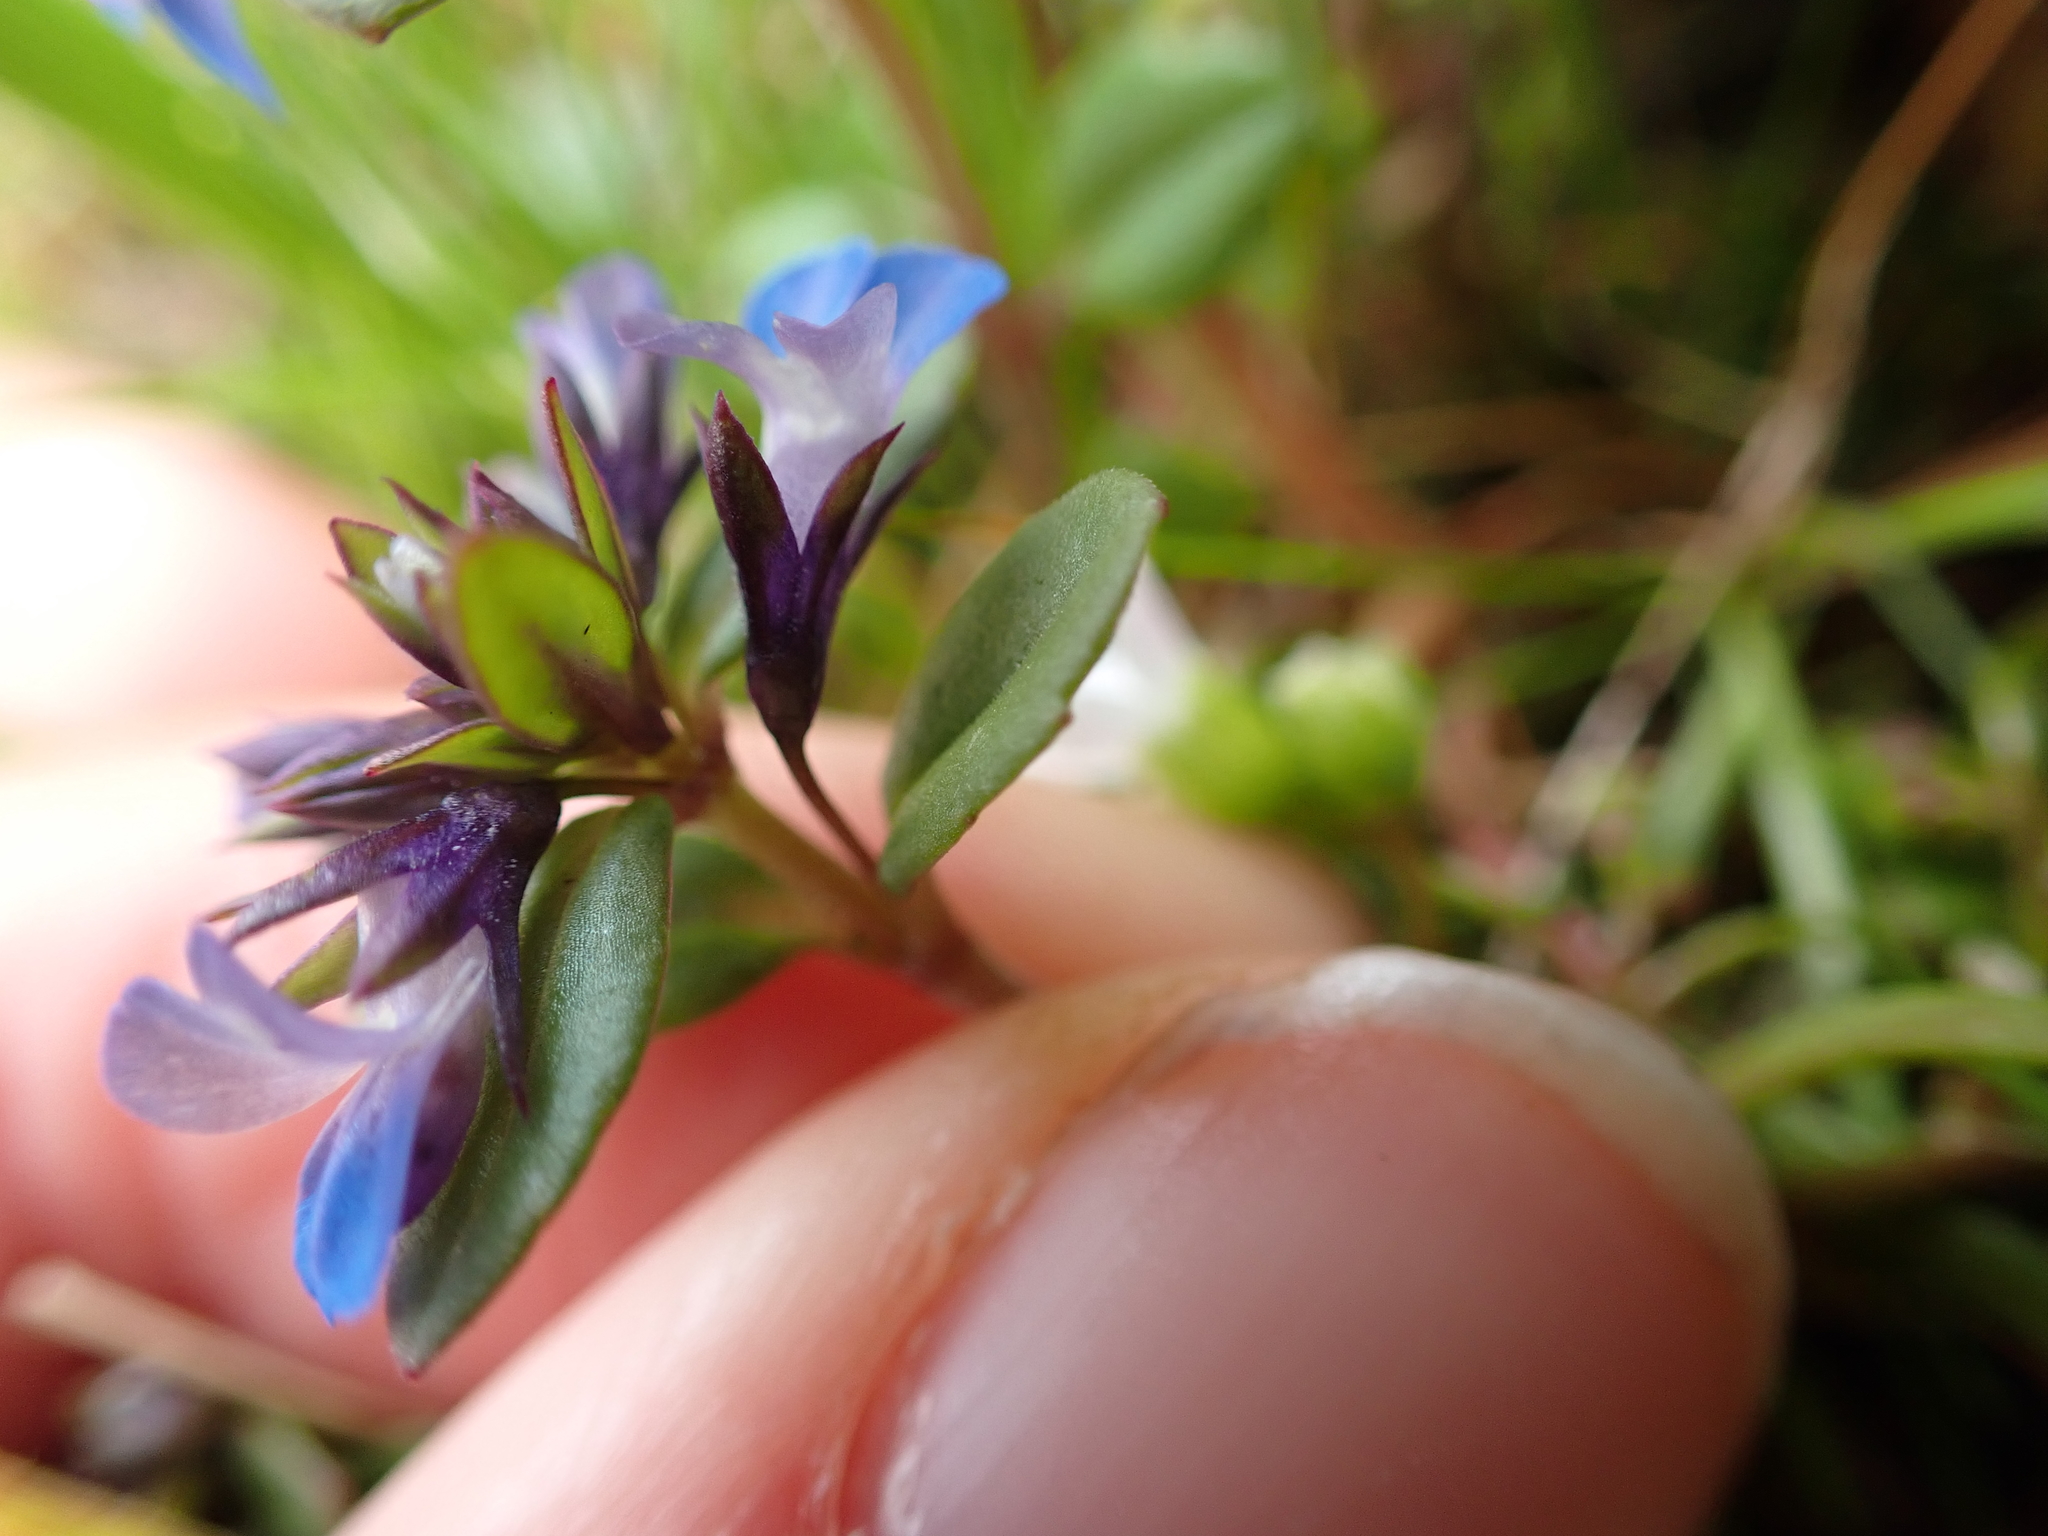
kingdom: Plantae
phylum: Tracheophyta
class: Magnoliopsida
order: Lamiales
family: Plantaginaceae
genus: Collinsia
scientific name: Collinsia parviflora
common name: Blue-lips
